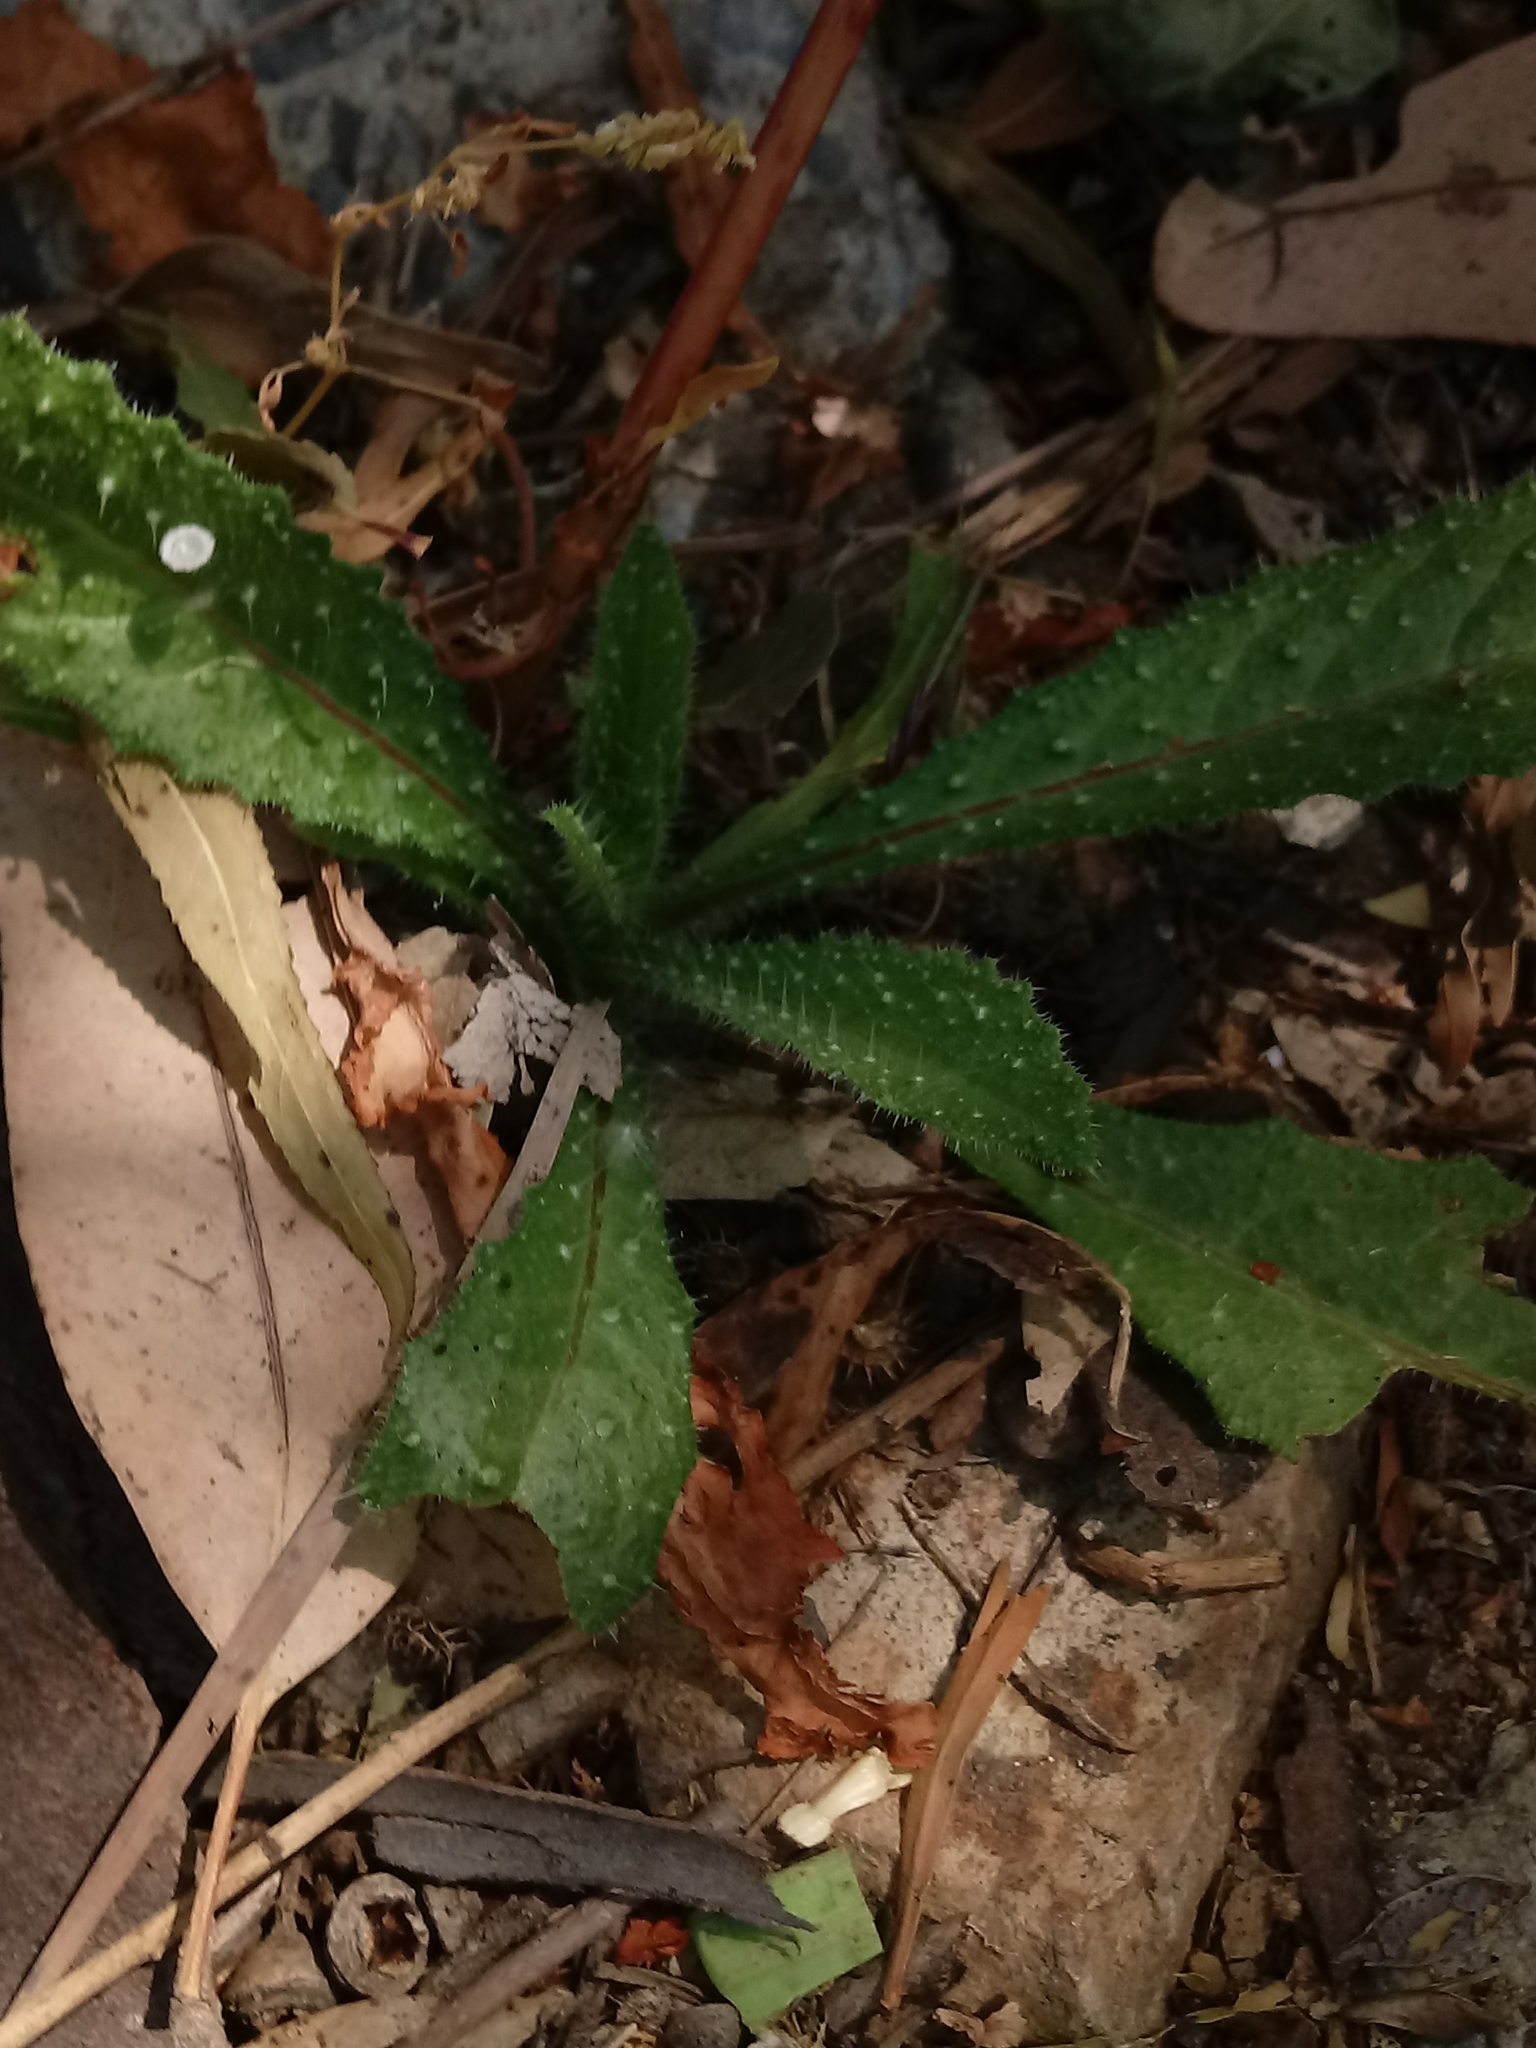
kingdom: Plantae
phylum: Tracheophyta
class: Magnoliopsida
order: Asterales
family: Asteraceae
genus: Helminthotheca
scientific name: Helminthotheca echioides
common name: Ox-tongue
